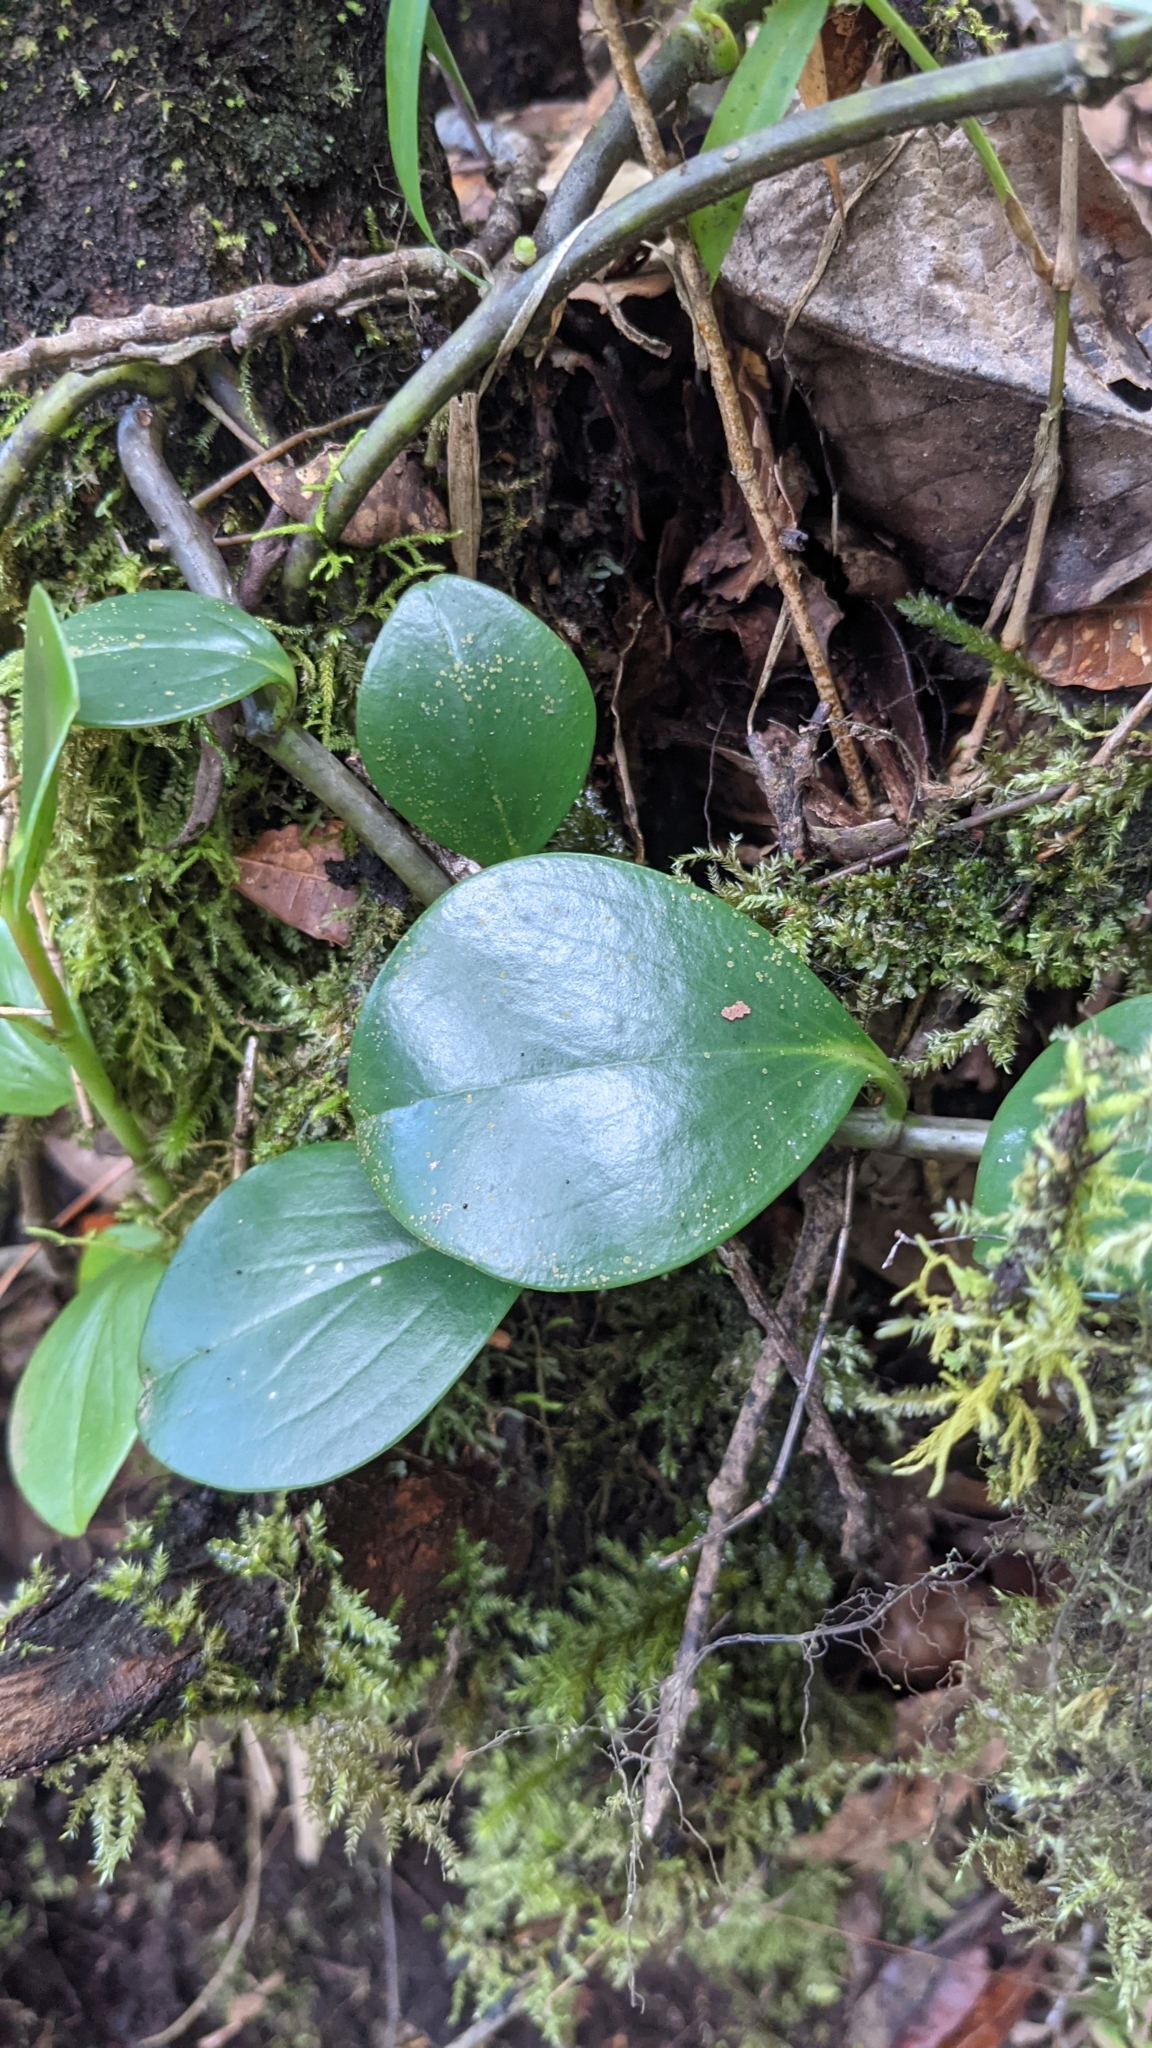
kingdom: Plantae
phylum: Tracheophyta
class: Magnoliopsida
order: Piperales
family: Piperaceae
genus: Peperomia
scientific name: Peperomia pseudoalpina
